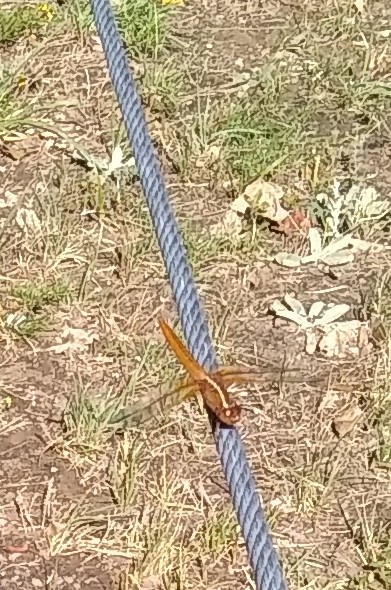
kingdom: Animalia
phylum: Arthropoda
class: Insecta
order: Odonata
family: Libellulidae
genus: Libellula
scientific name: Libellula croceipennis
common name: Neon skimmer
